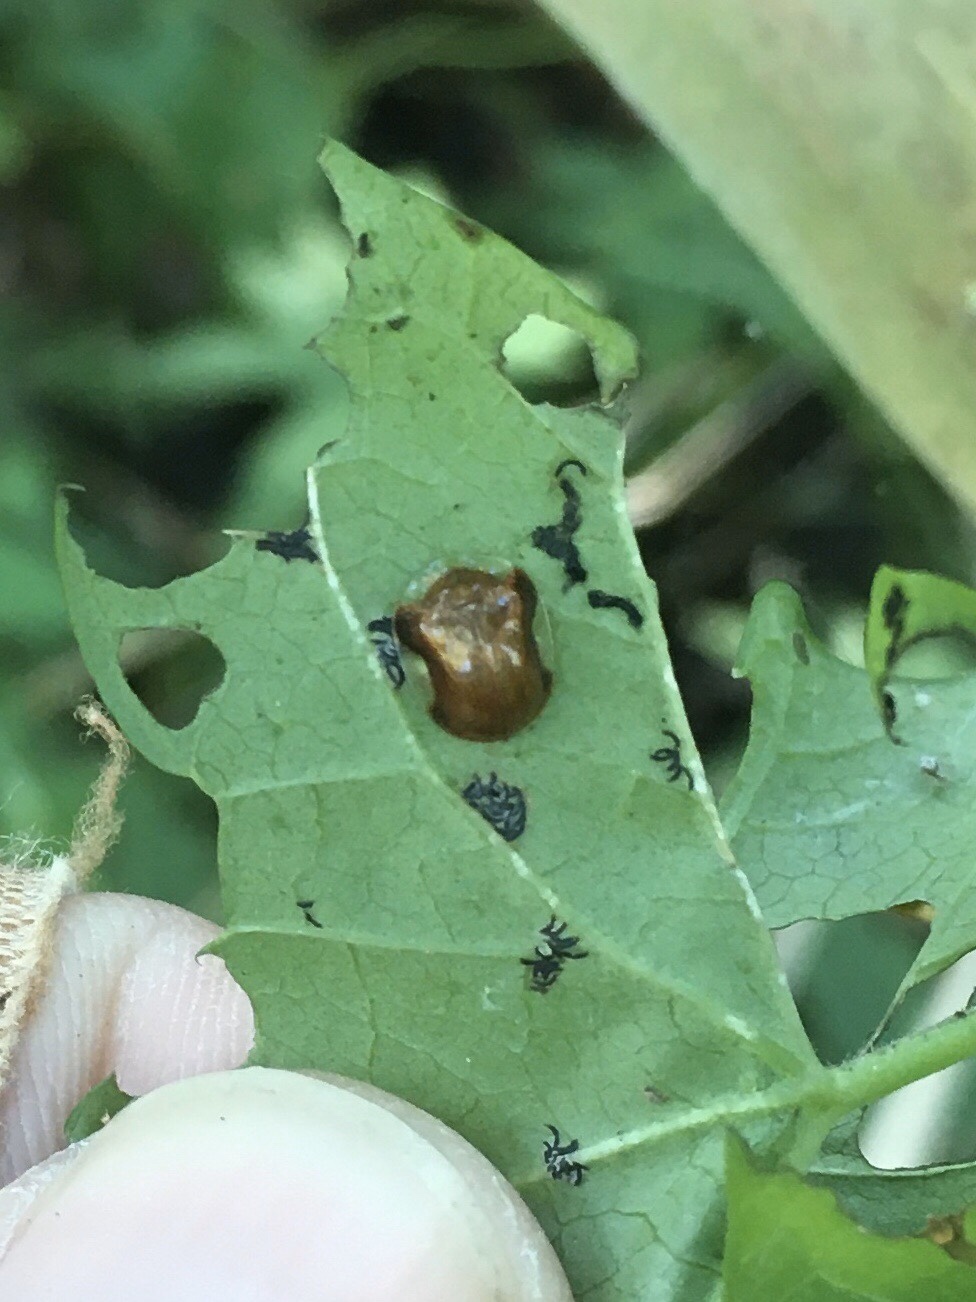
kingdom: Animalia
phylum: Arthropoda
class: Insecta
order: Coleoptera
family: Chrysomelidae
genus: Charidotella
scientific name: Charidotella purpurata
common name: Small orange tortoise beetle
